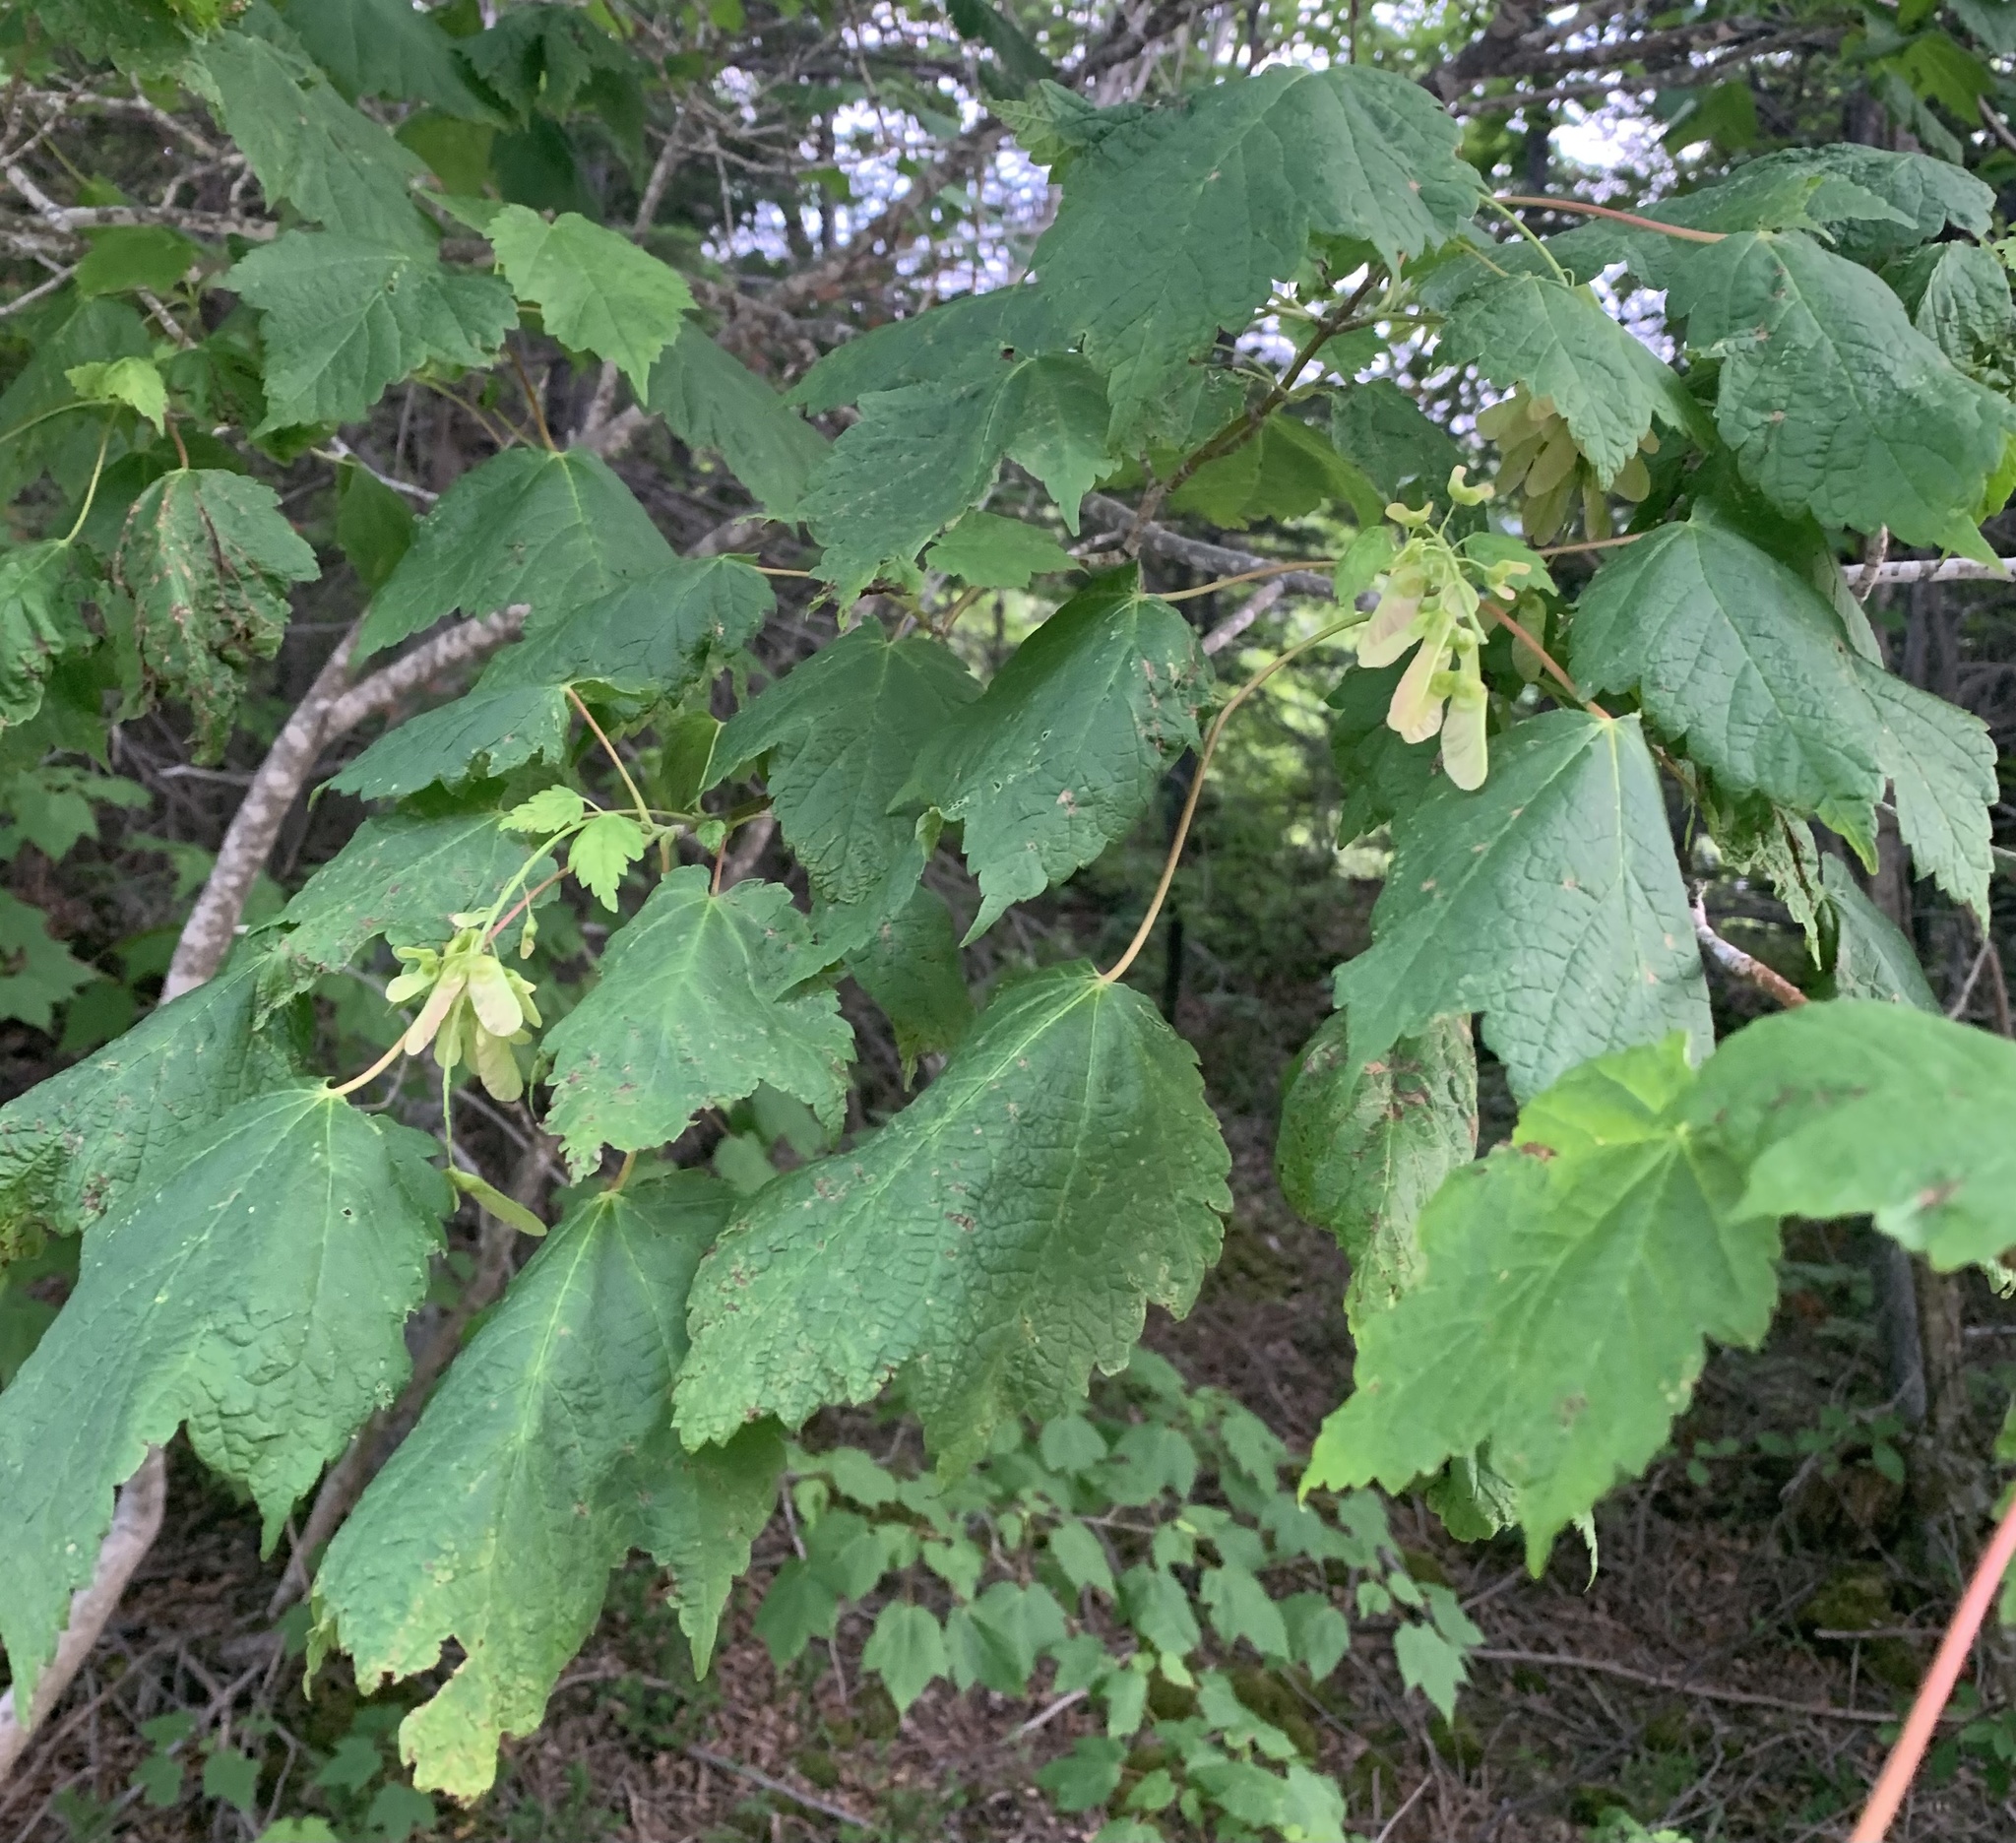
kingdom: Plantae
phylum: Tracheophyta
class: Magnoliopsida
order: Sapindales
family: Sapindaceae
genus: Acer
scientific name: Acer spicatum
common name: Mountain maple
